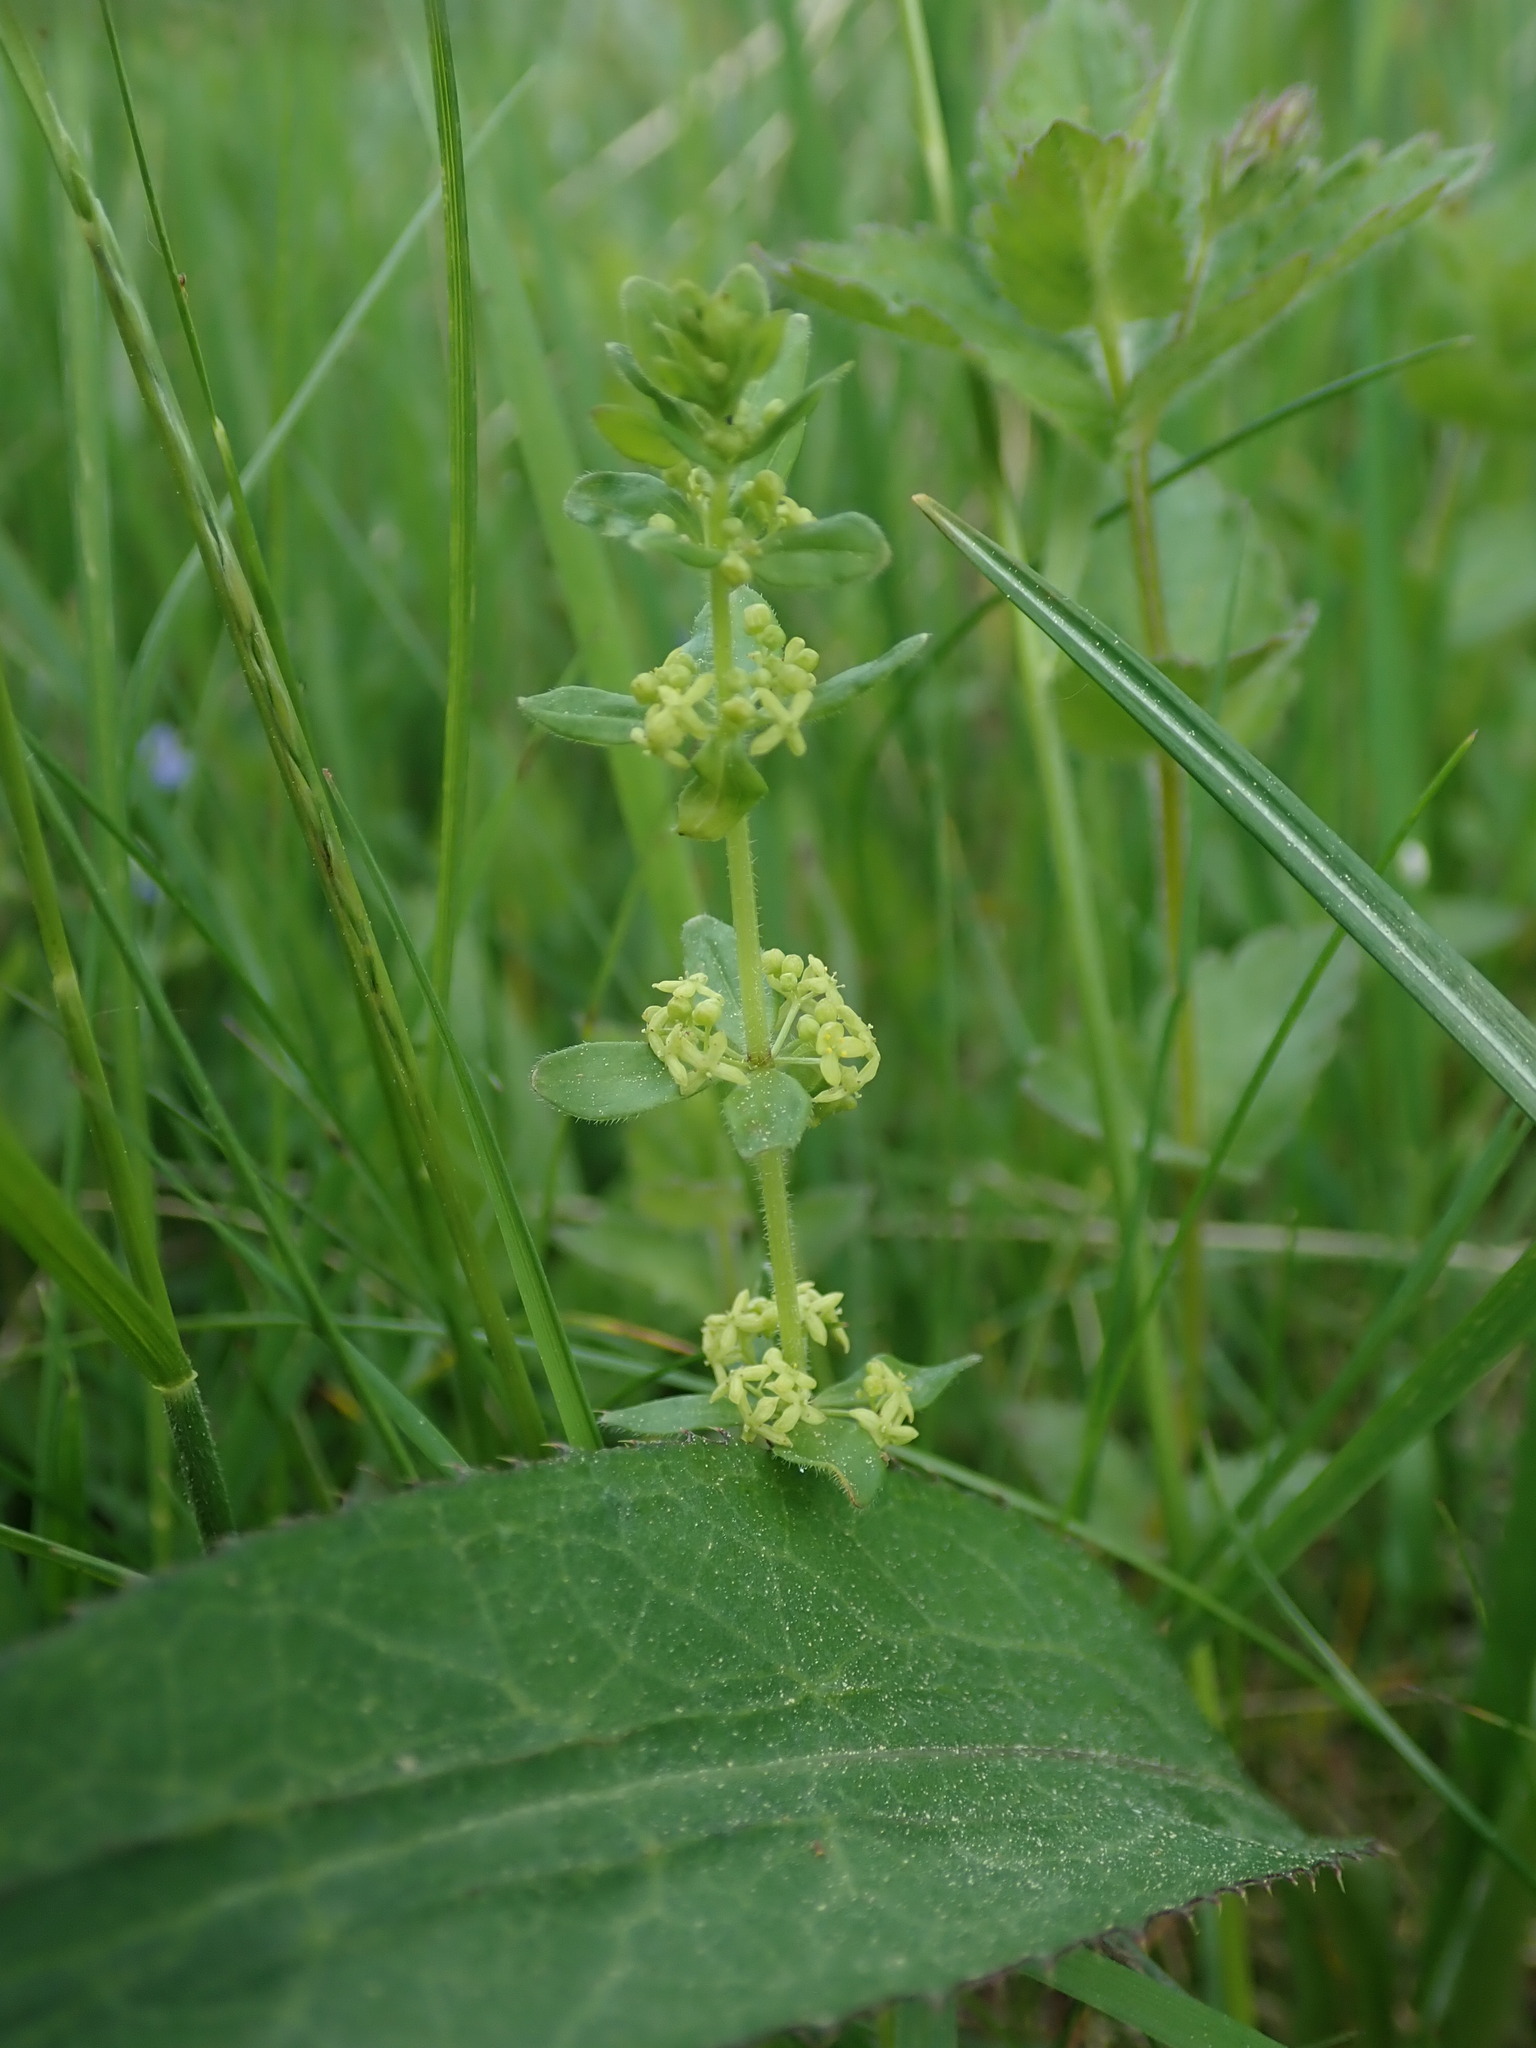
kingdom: Plantae
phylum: Tracheophyta
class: Magnoliopsida
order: Gentianales
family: Rubiaceae
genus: Cruciata
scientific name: Cruciata glabra
